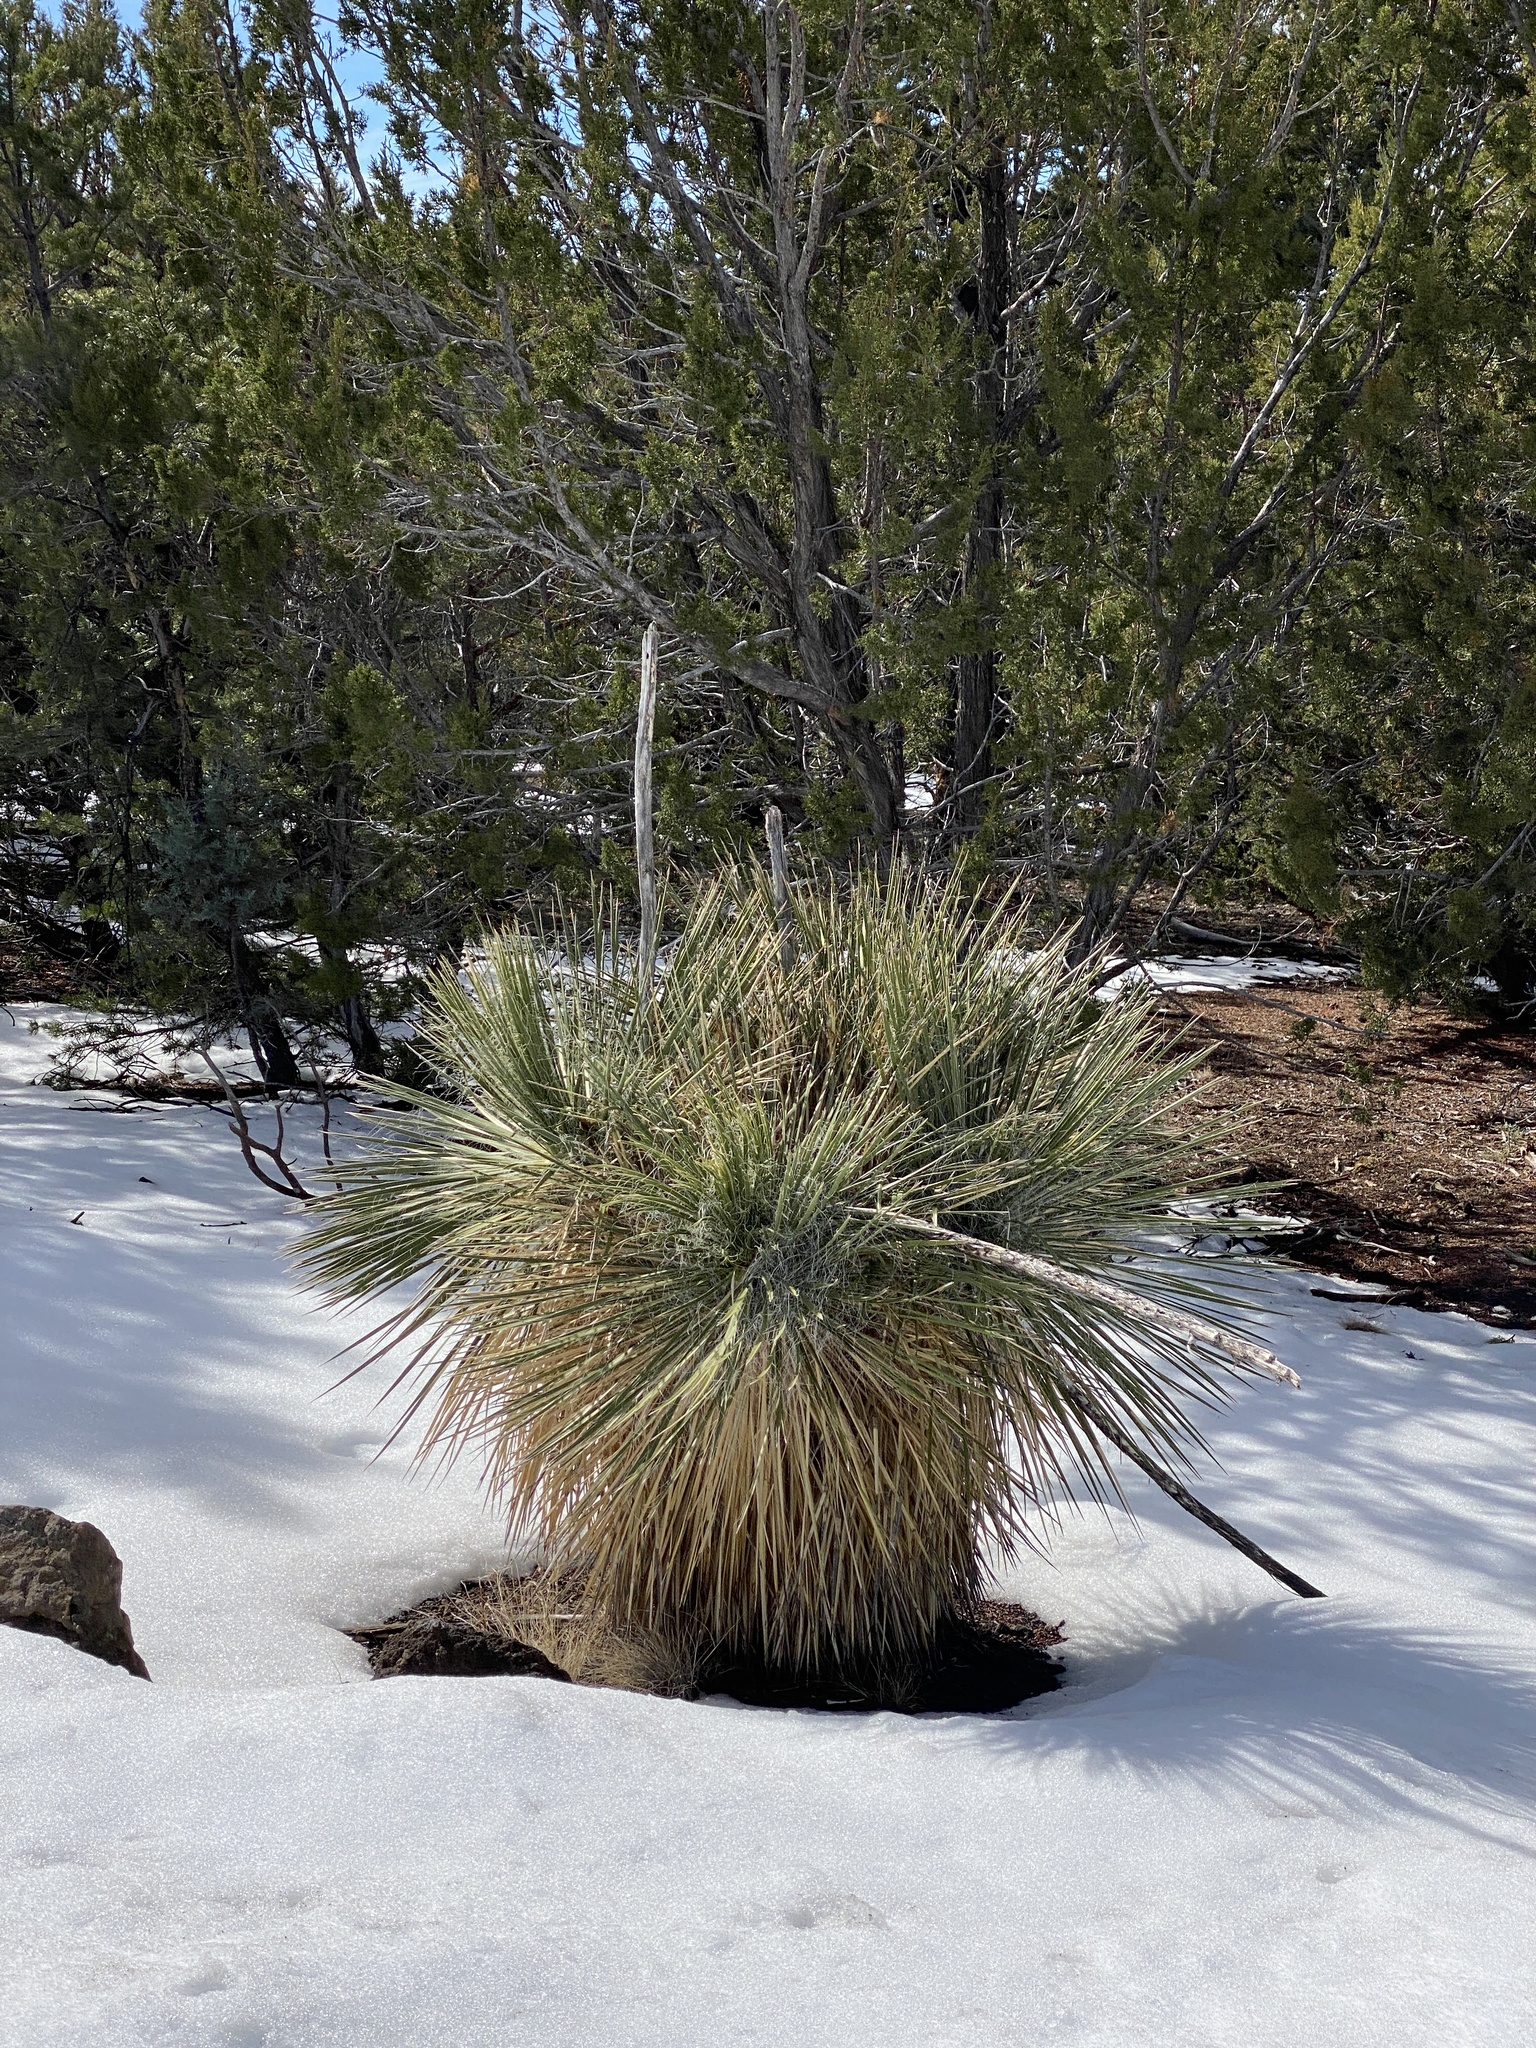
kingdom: Plantae
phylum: Tracheophyta
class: Liliopsida
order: Asparagales
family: Asparagaceae
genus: Yucca
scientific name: Yucca elata
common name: Palmella
